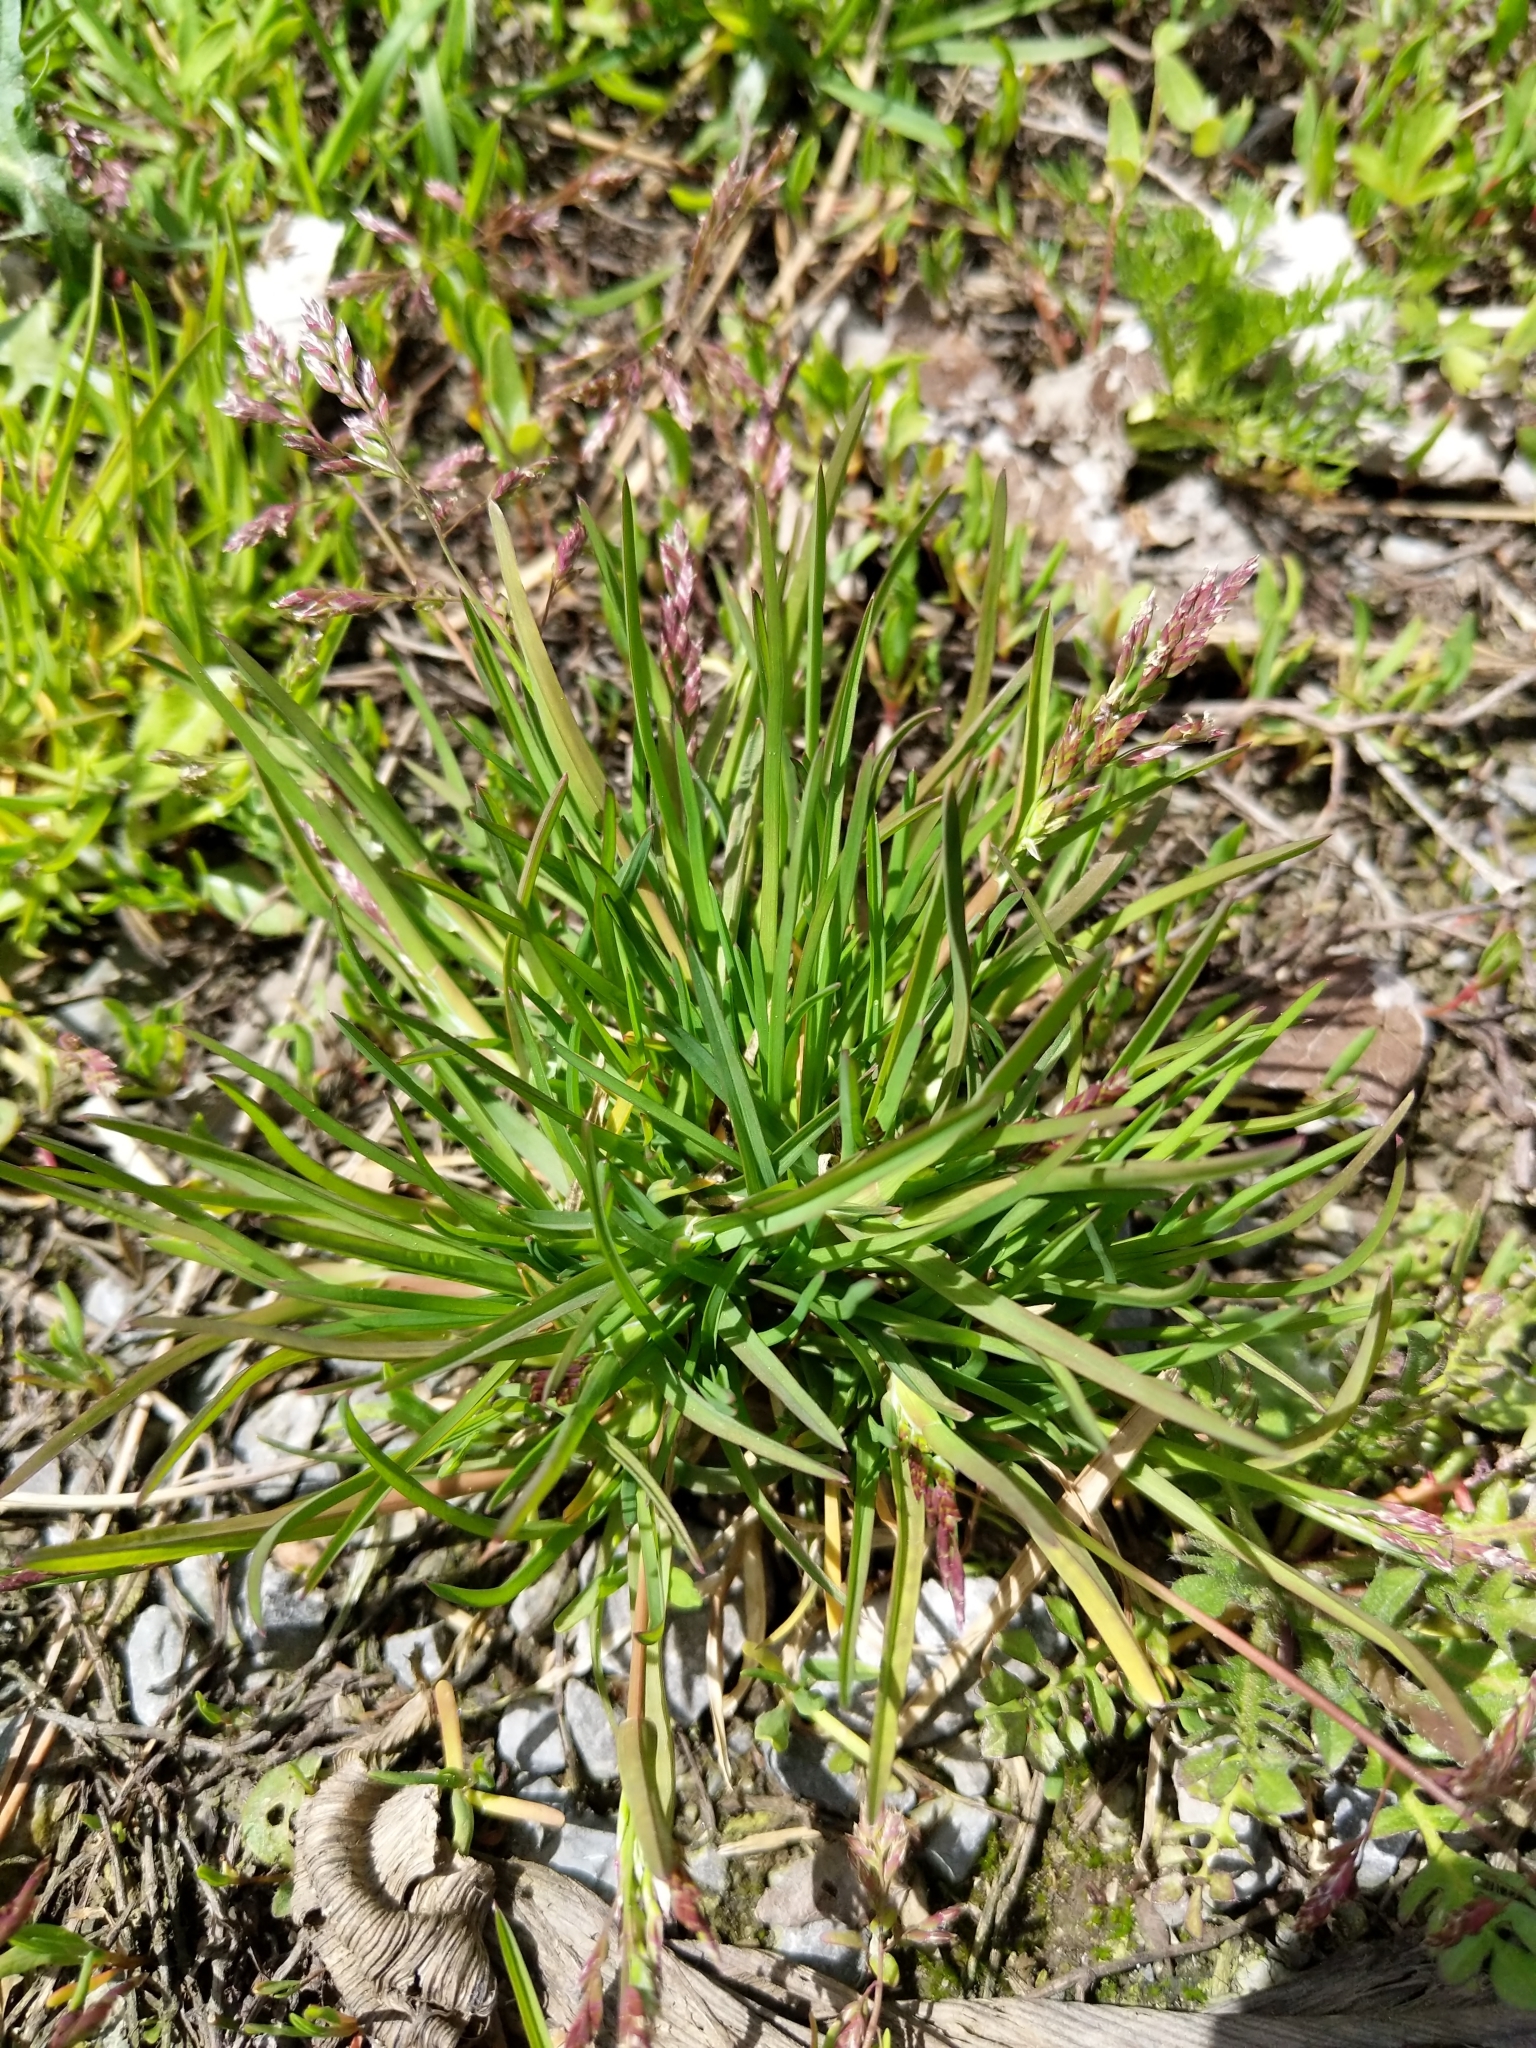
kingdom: Plantae
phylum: Tracheophyta
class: Liliopsida
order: Poales
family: Poaceae
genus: Poa
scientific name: Poa annua
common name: Annual bluegrass
